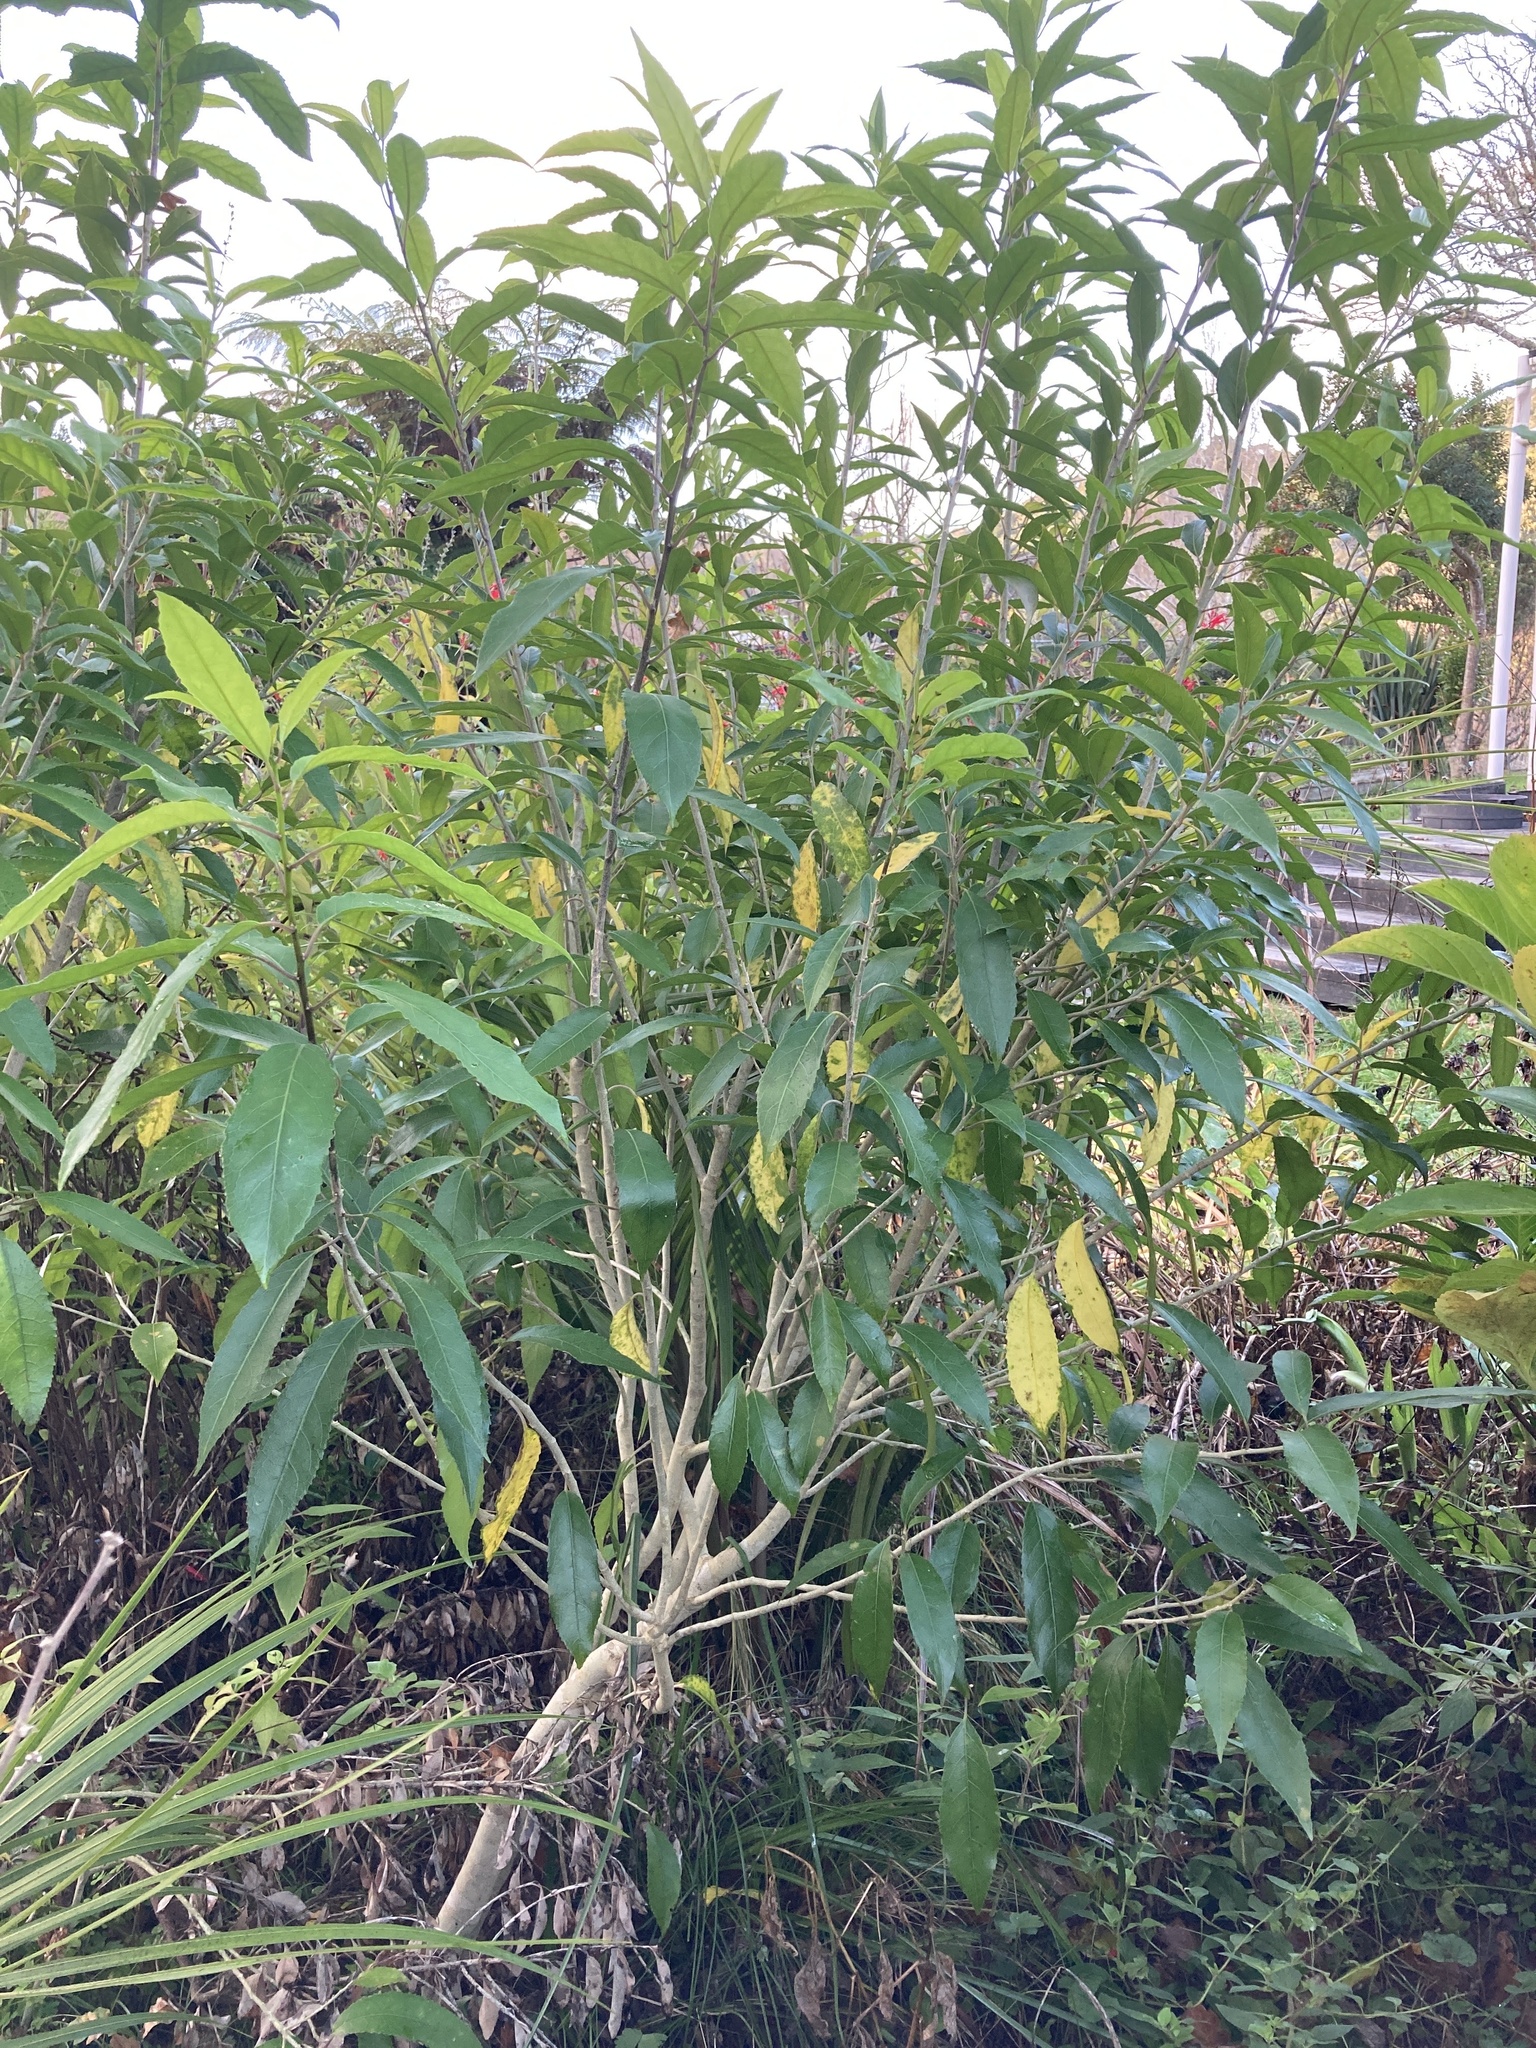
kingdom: Plantae
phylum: Tracheophyta
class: Magnoliopsida
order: Malpighiales
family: Violaceae
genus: Melicytus
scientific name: Melicytus ramiflorus
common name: Mahoe
